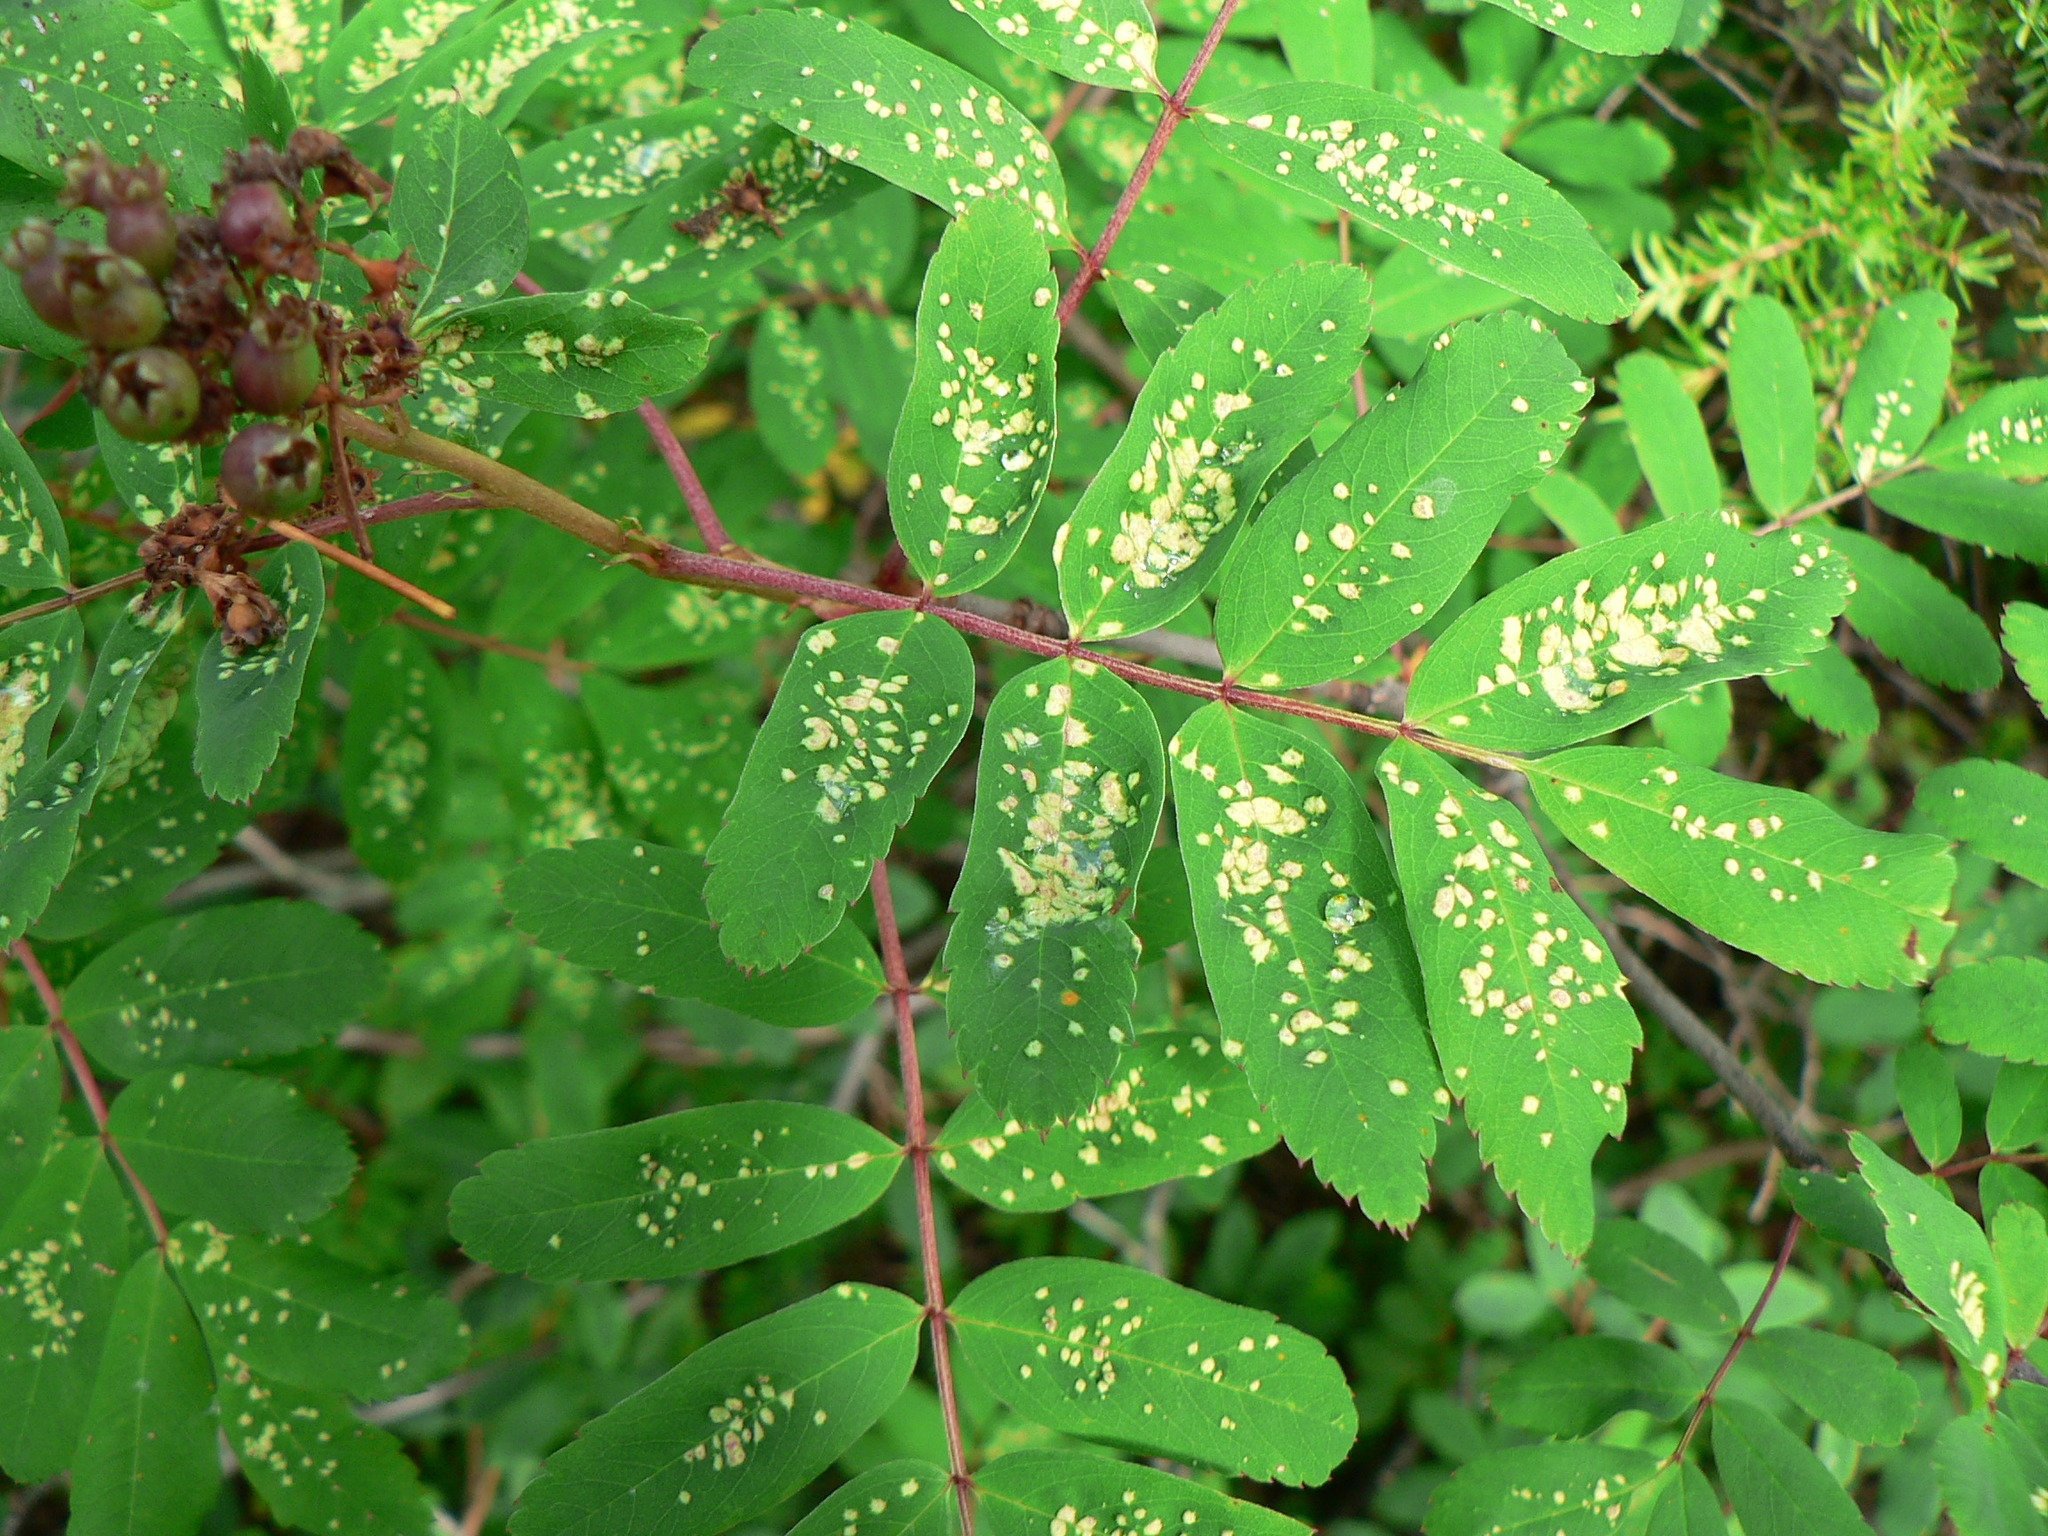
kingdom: Plantae
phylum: Tracheophyta
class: Magnoliopsida
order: Rosales
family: Rosaceae
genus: Sorbus
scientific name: Sorbus sitchensis
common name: Sitka mountain-ash
